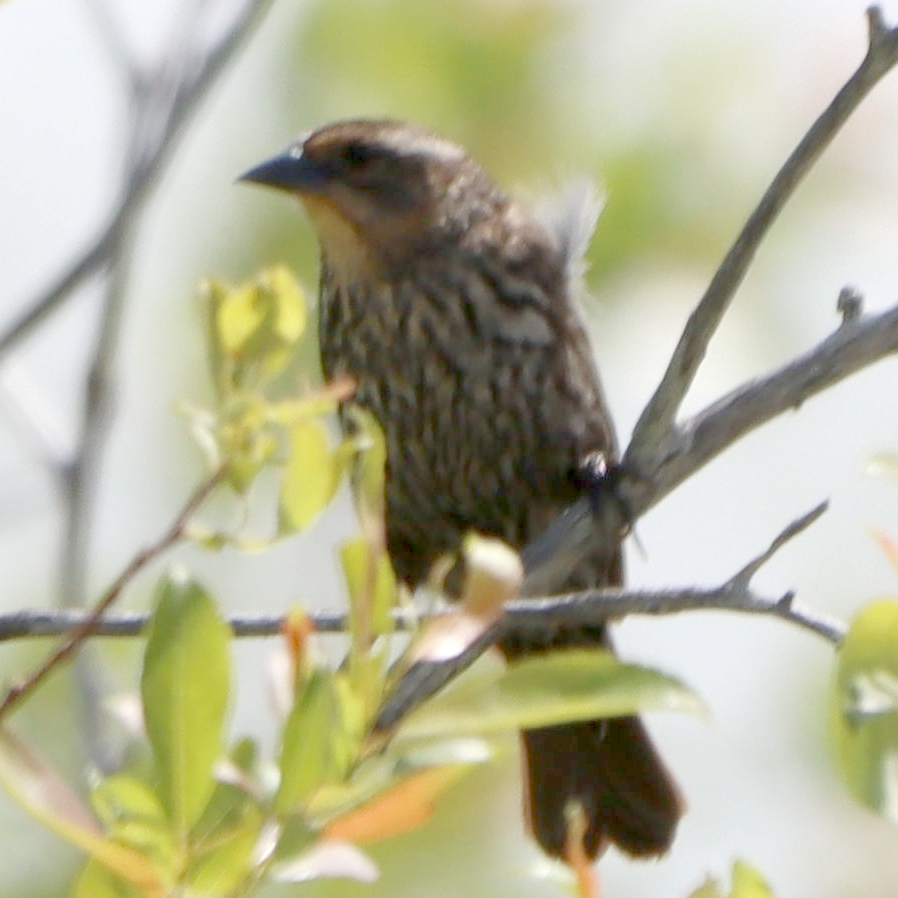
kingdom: Animalia
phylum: Chordata
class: Aves
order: Passeriformes
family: Icteridae
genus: Agelaius
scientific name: Agelaius phoeniceus
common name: Red-winged blackbird
